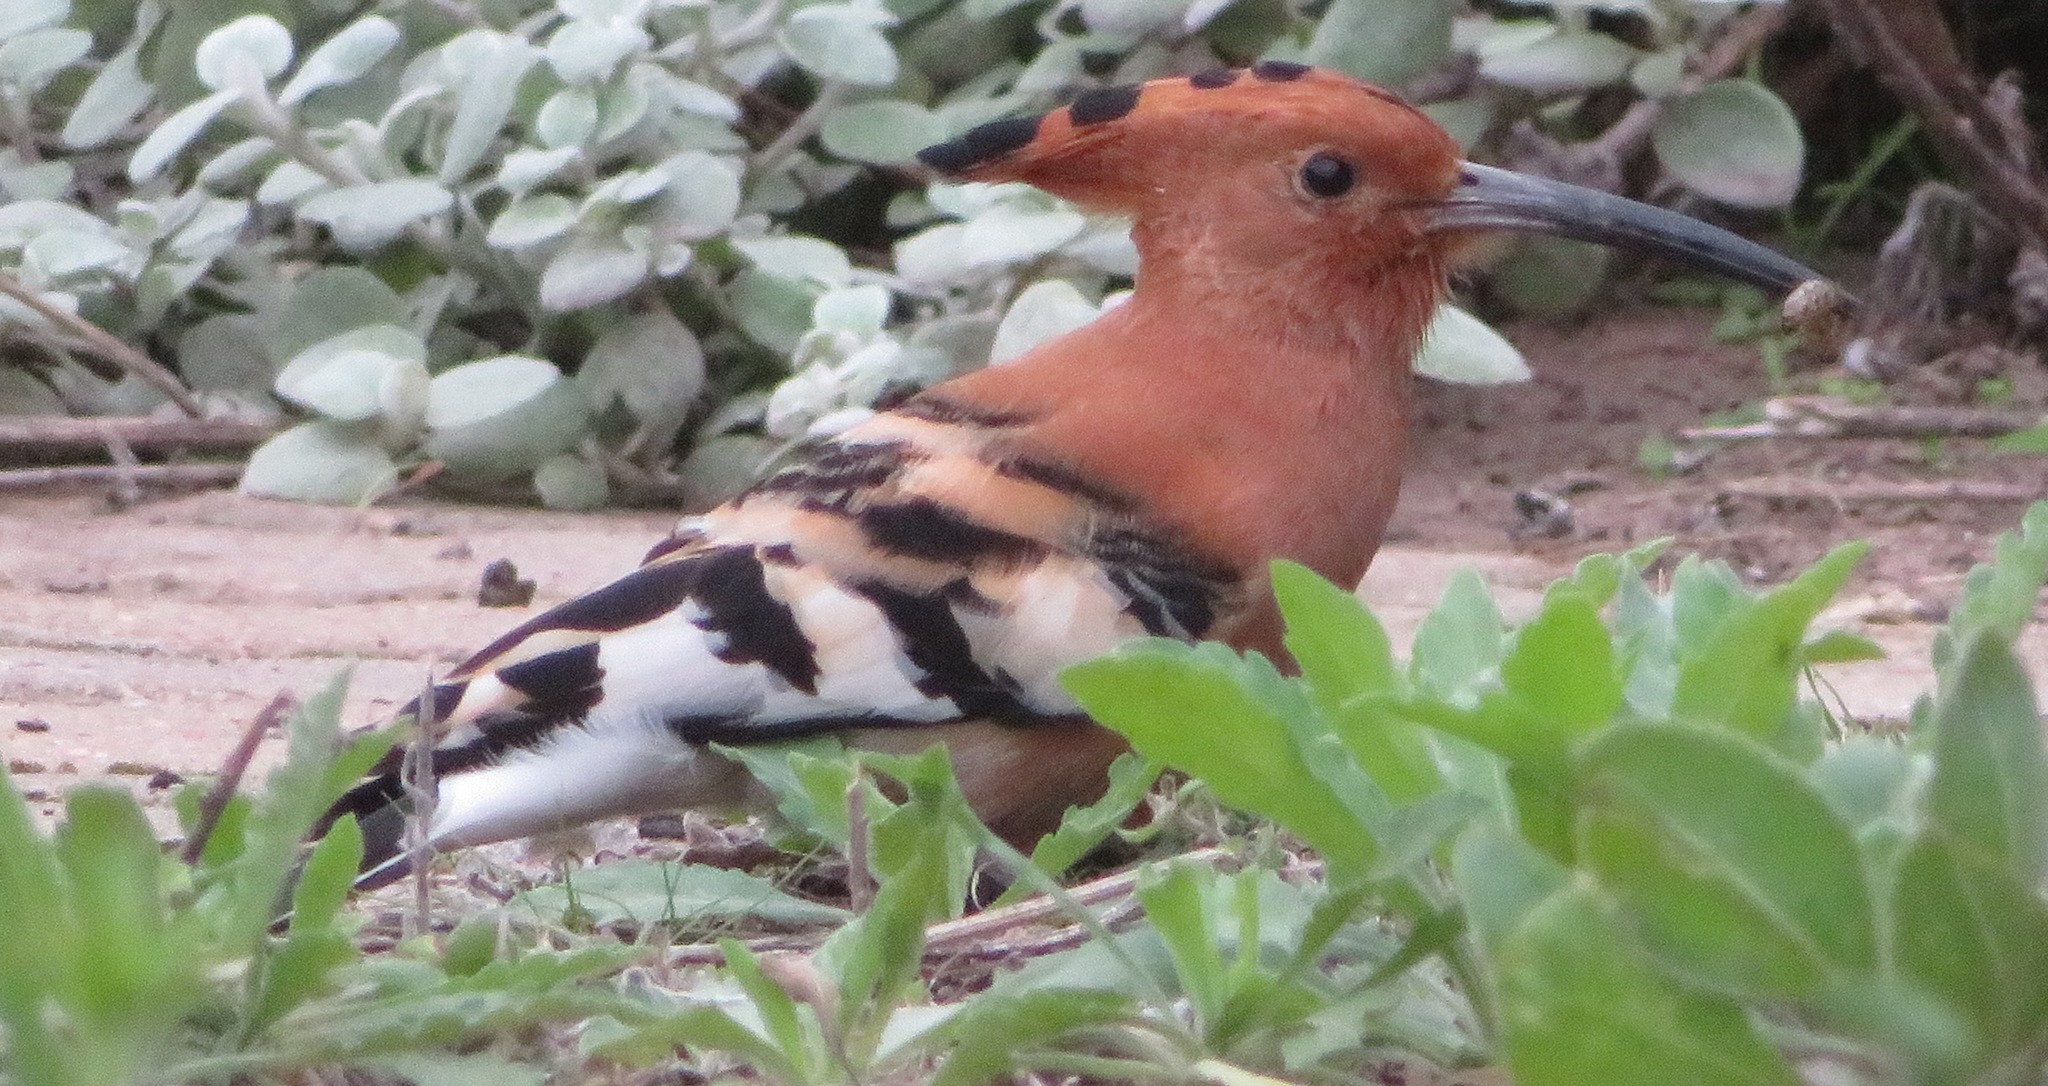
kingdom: Animalia
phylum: Chordata
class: Aves
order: Bucerotiformes
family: Upupidae
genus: Upupa
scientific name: Upupa africana
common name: African hoopoe
